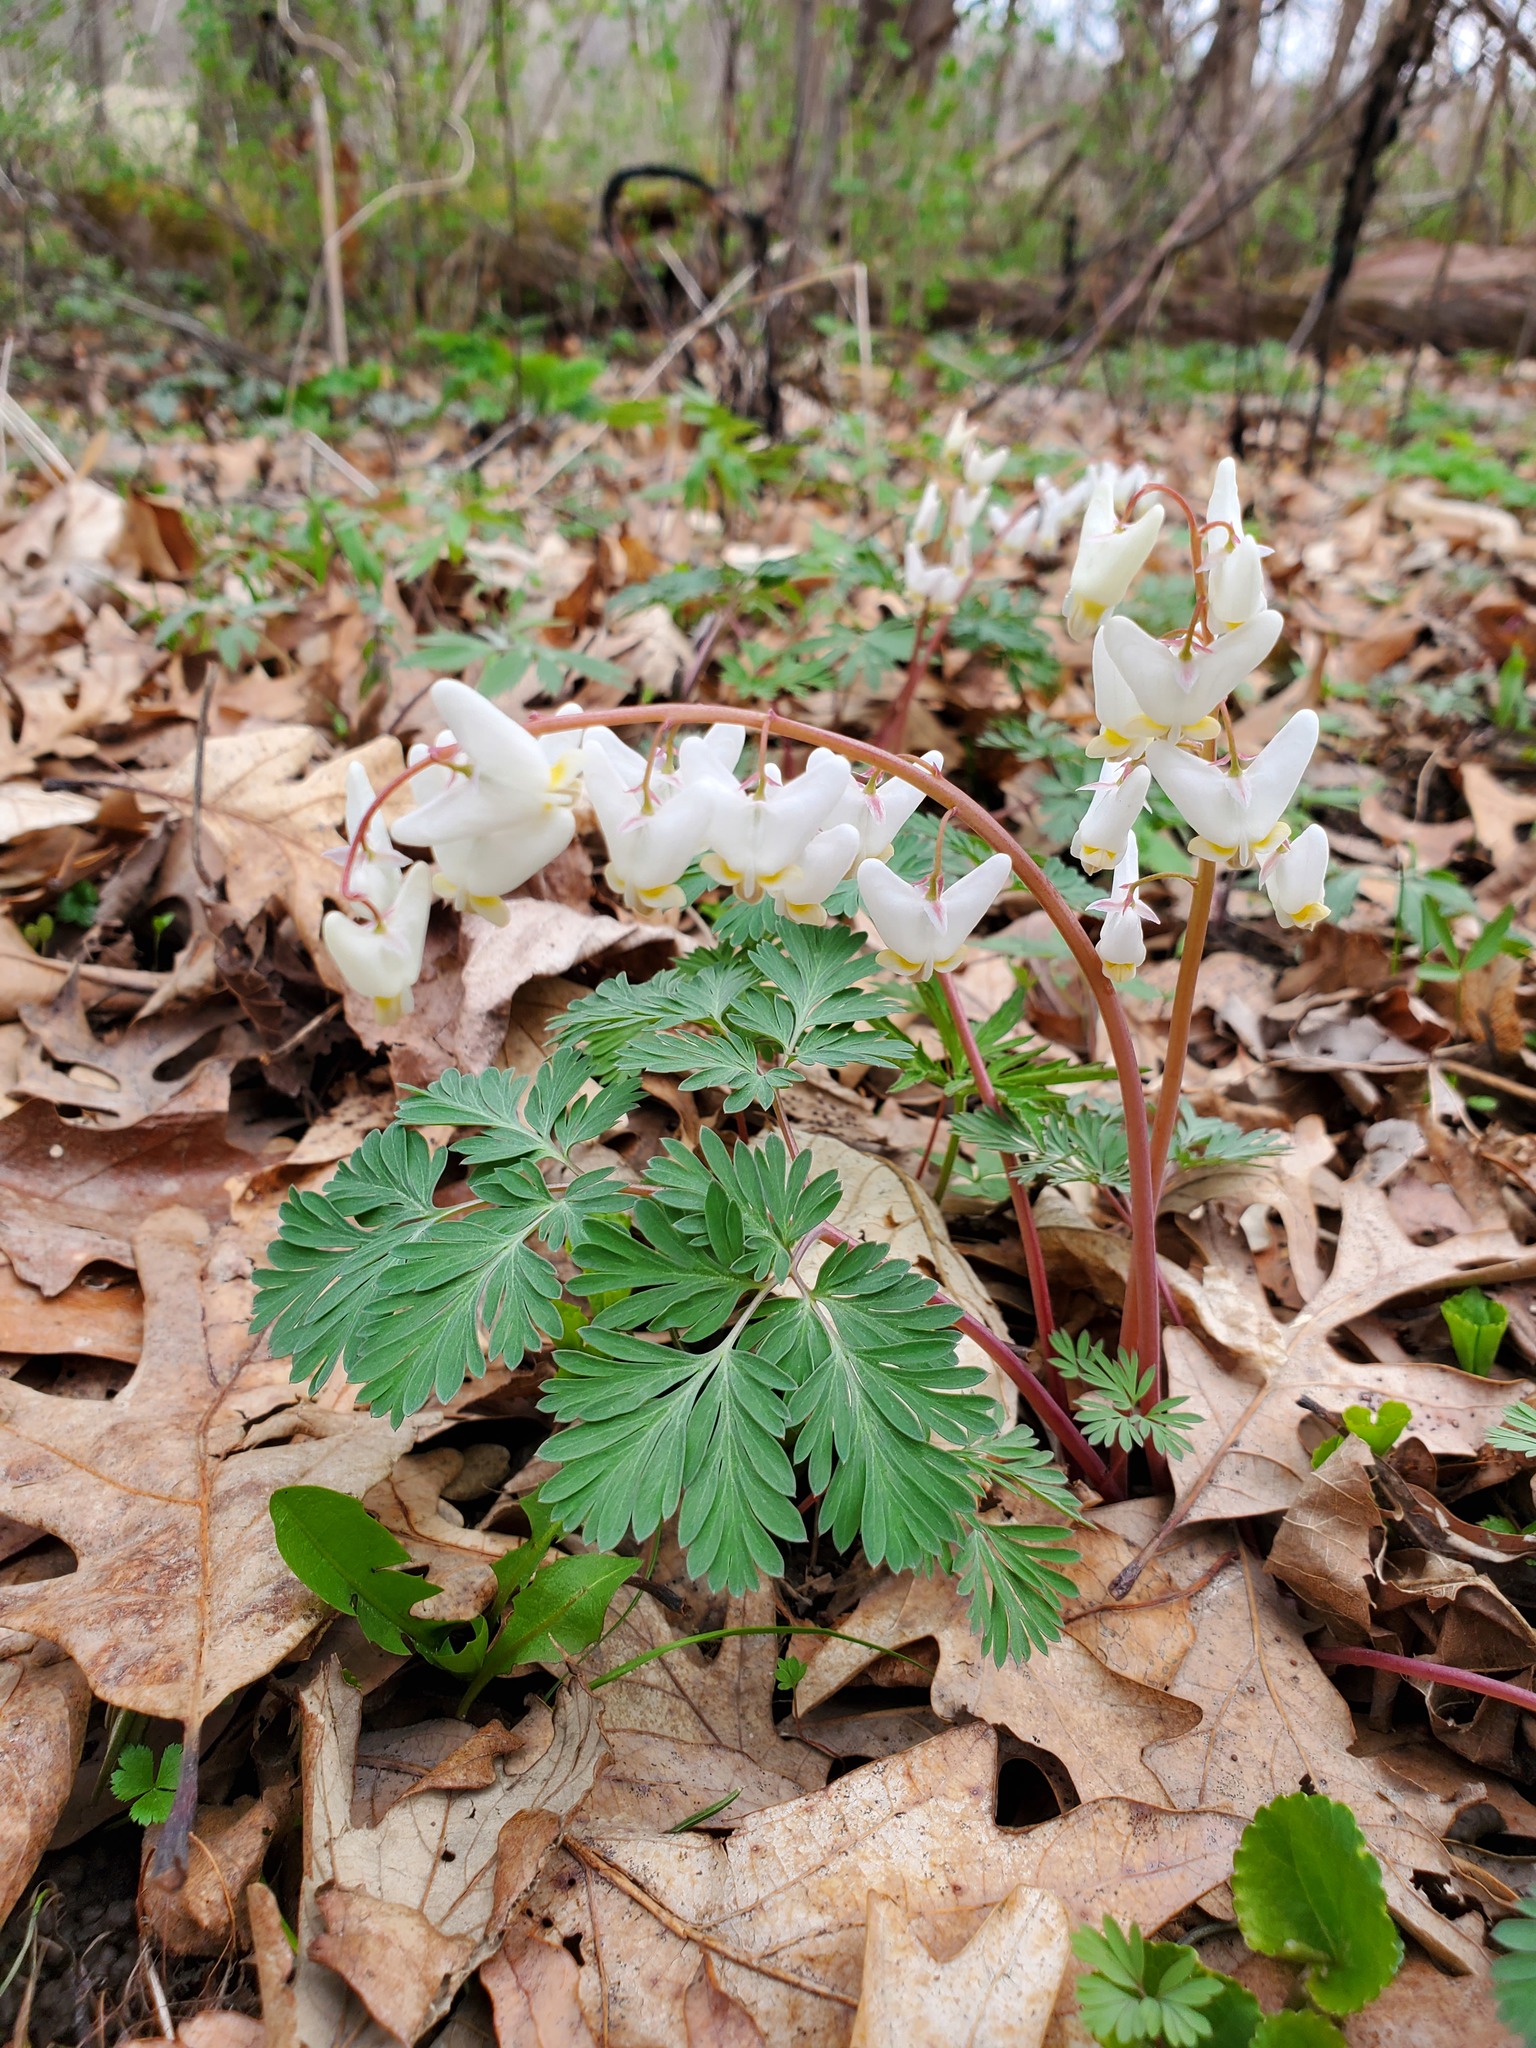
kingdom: Plantae
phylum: Tracheophyta
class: Magnoliopsida
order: Ranunculales
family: Papaveraceae
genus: Dicentra
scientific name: Dicentra cucullaria
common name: Dutchman's breeches
